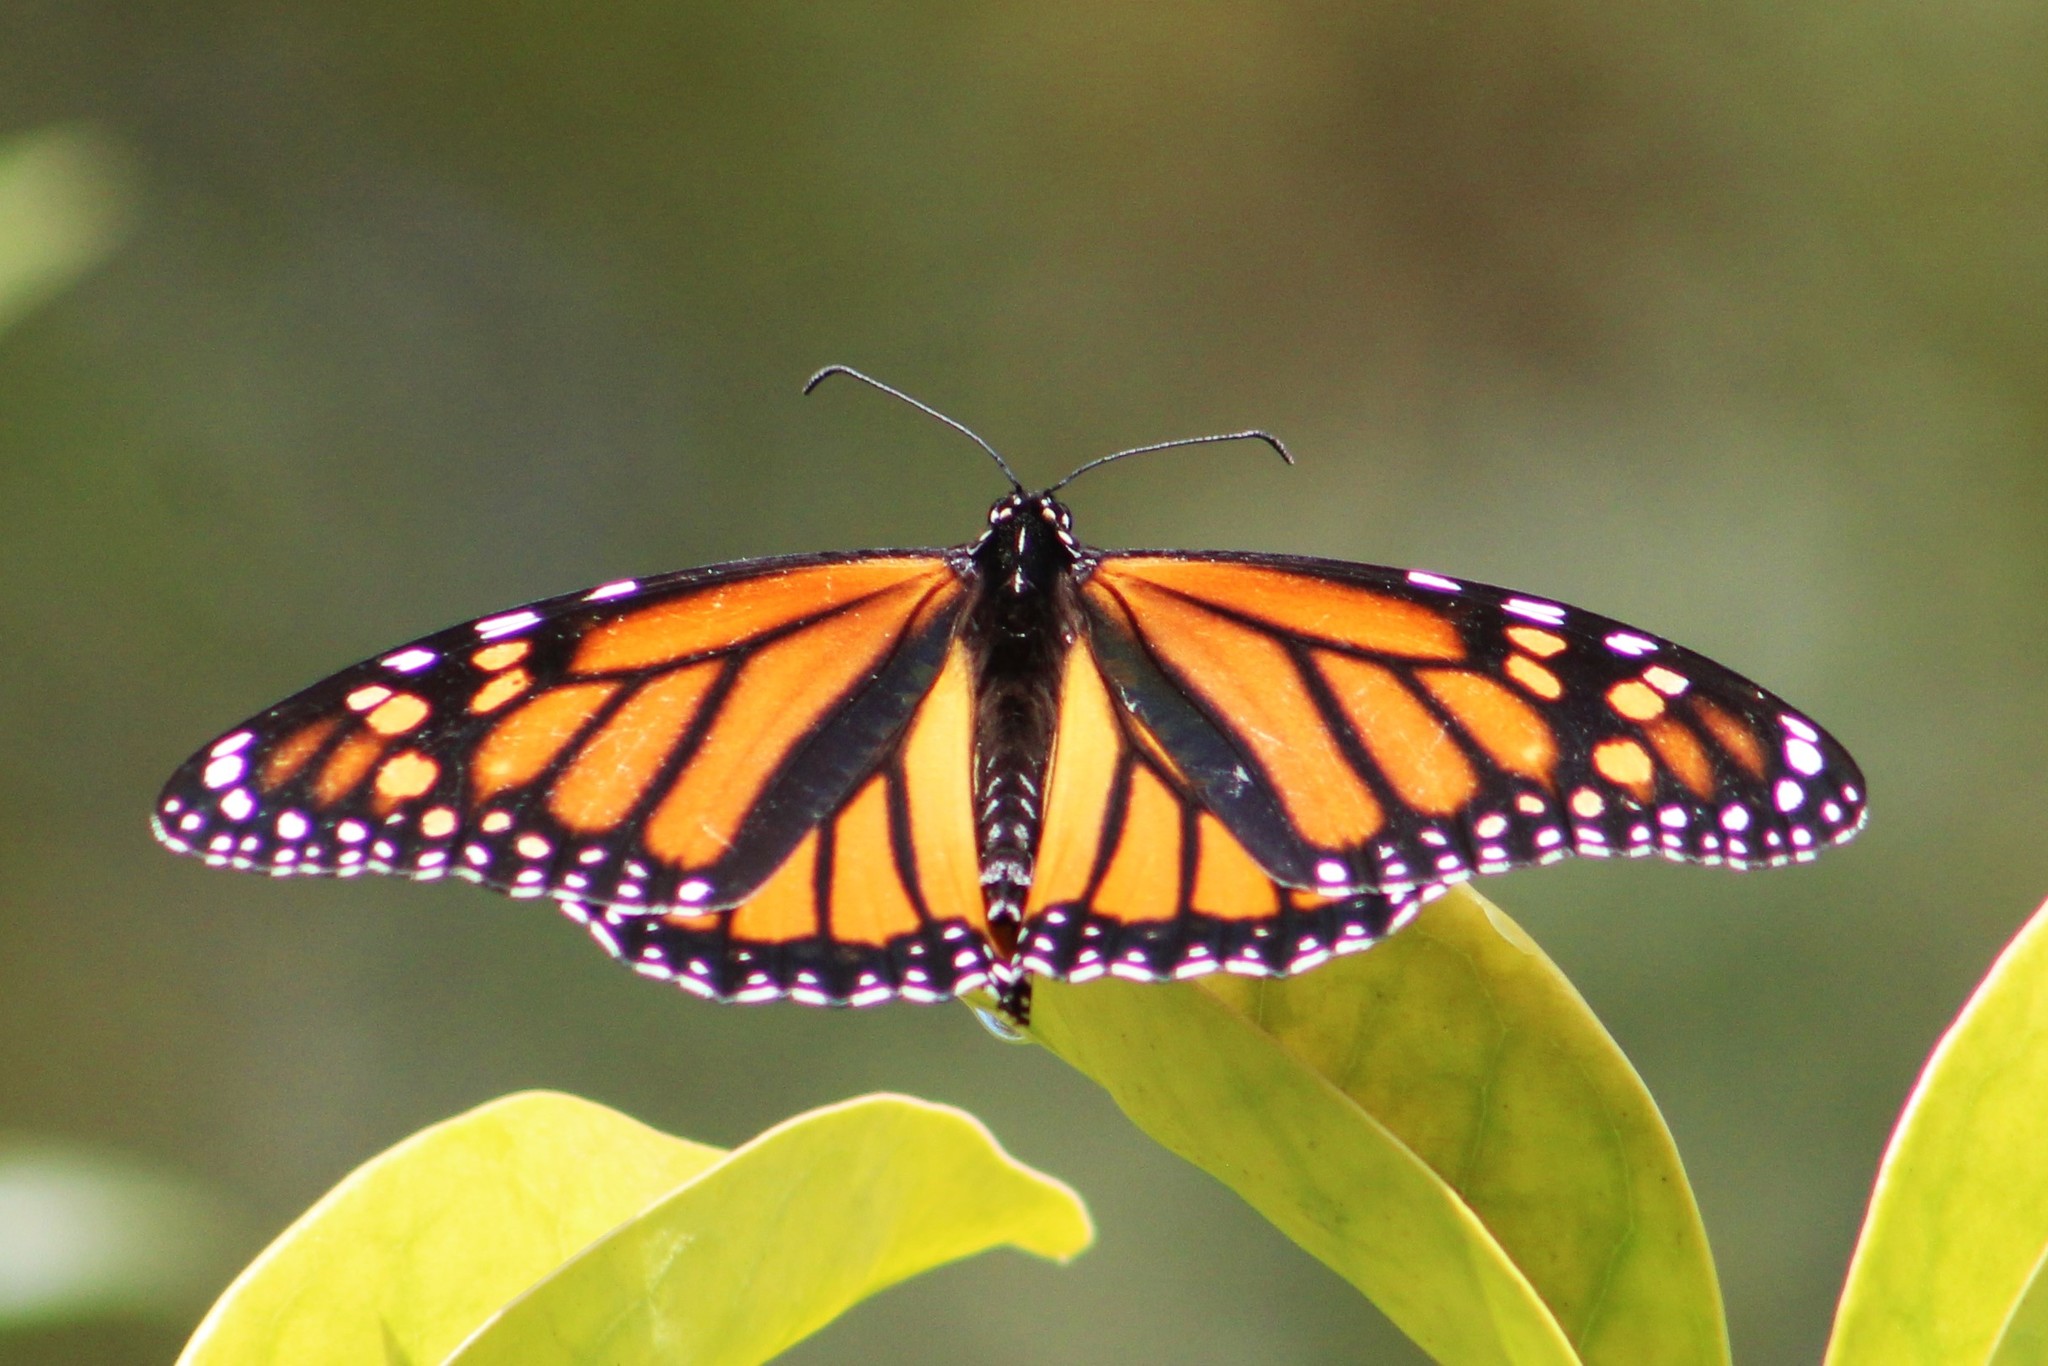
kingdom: Animalia
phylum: Arthropoda
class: Insecta
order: Lepidoptera
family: Nymphalidae
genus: Danaus
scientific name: Danaus plexippus
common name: Monarch
